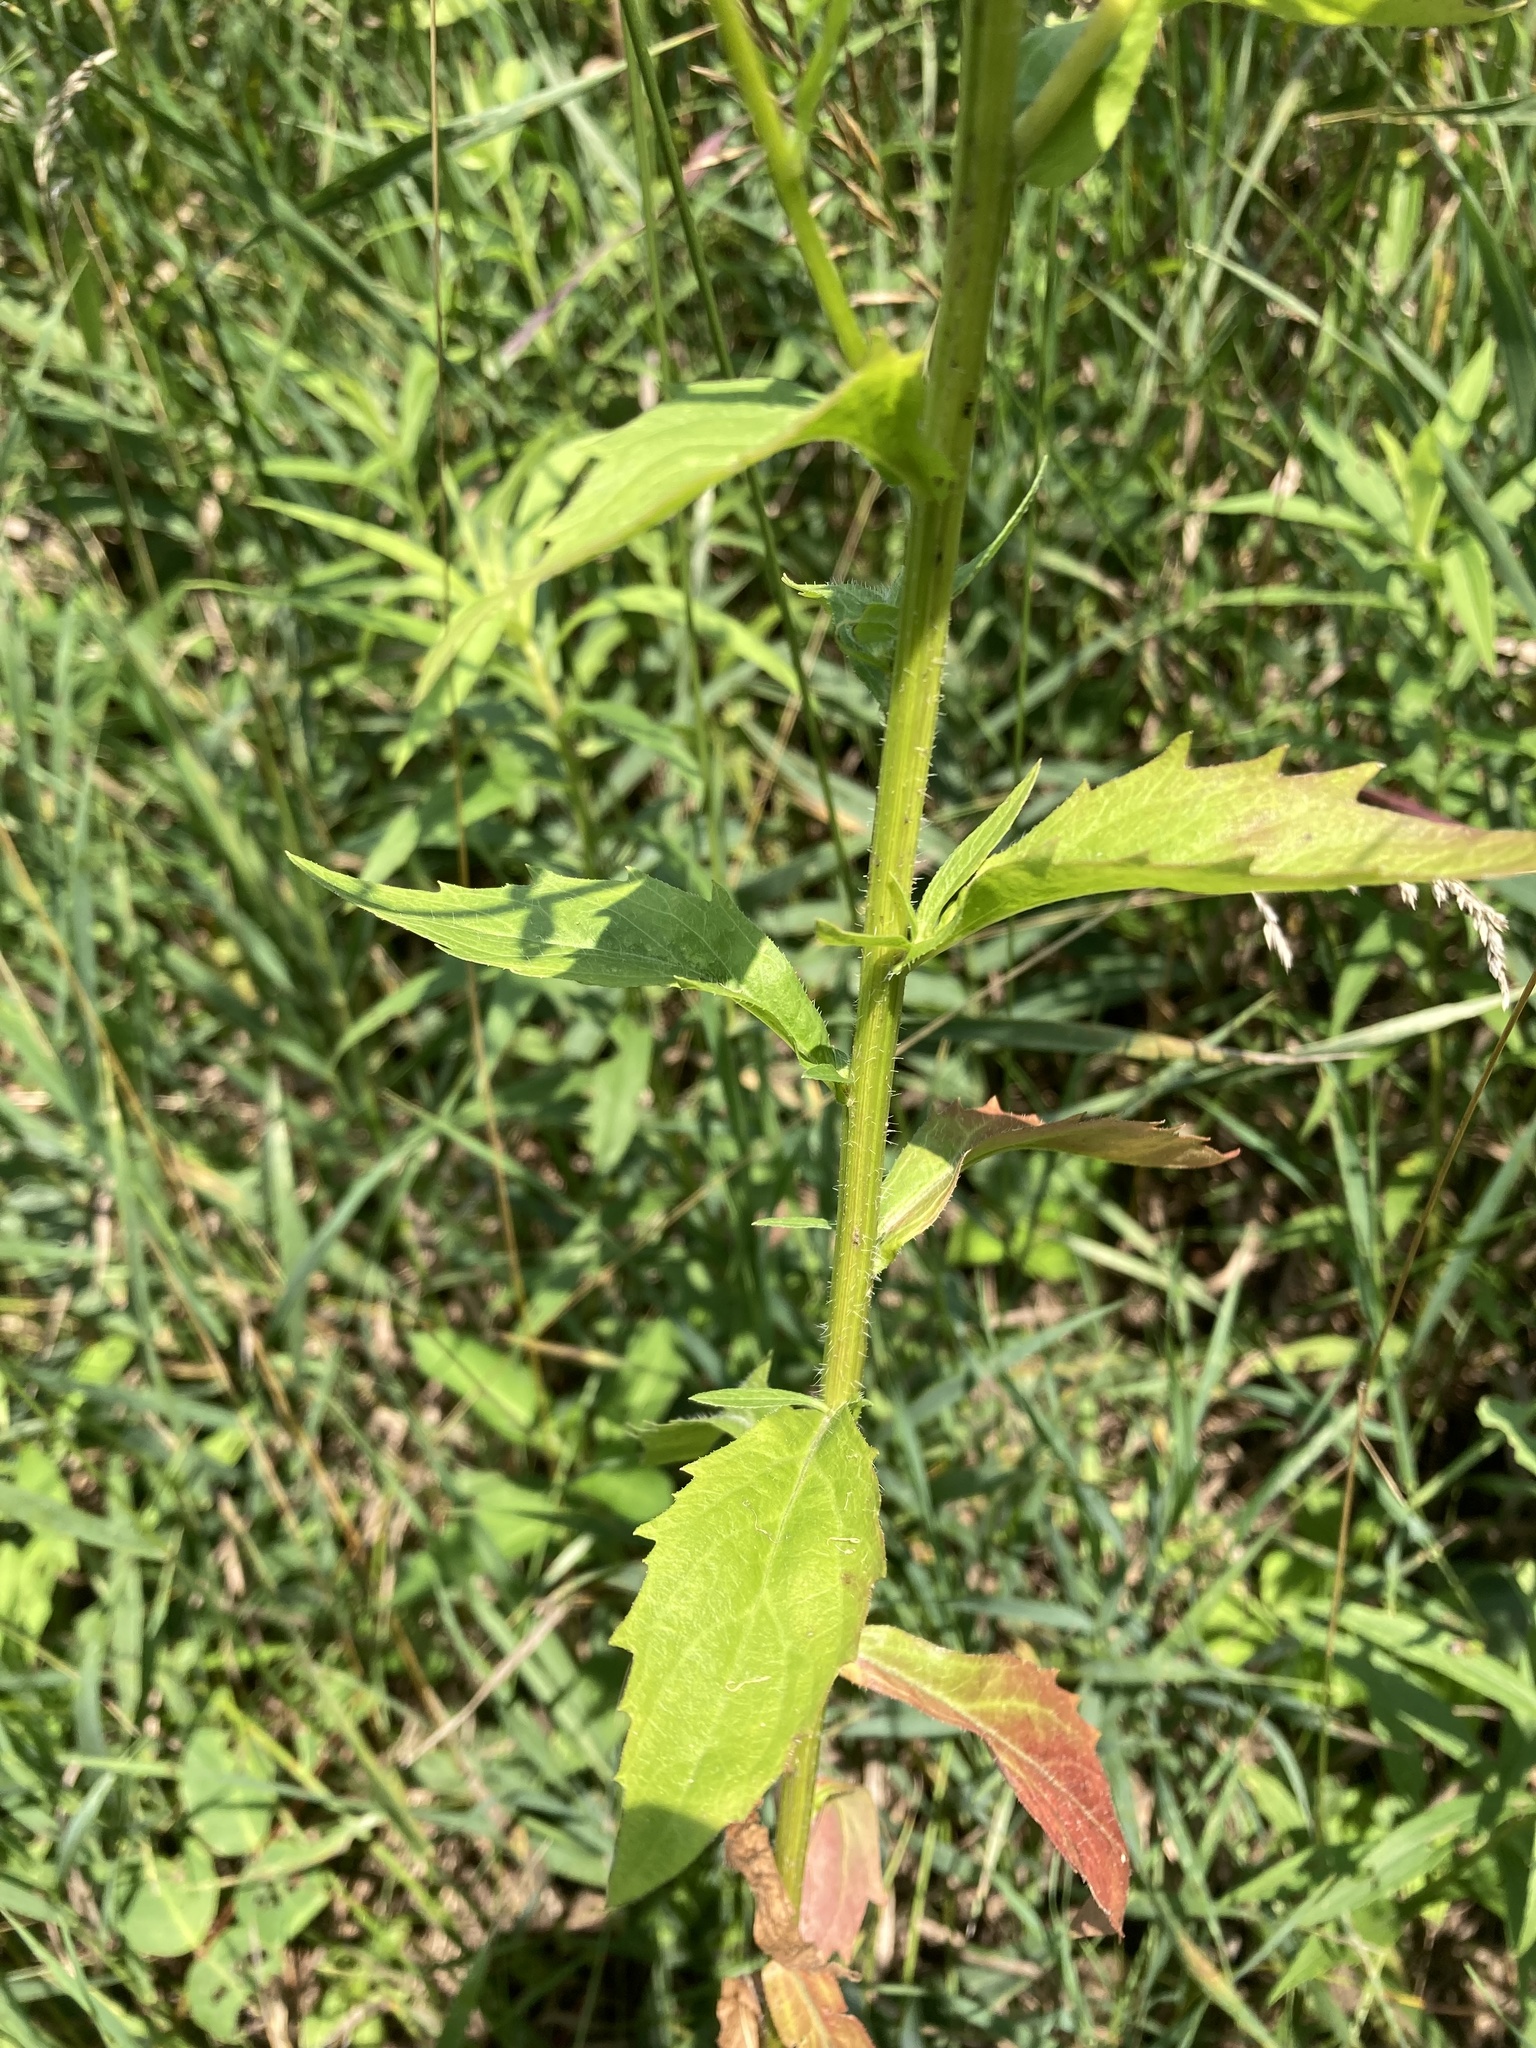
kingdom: Plantae
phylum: Tracheophyta
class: Magnoliopsida
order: Asterales
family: Asteraceae
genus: Erigeron
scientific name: Erigeron annuus
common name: Tall fleabane
